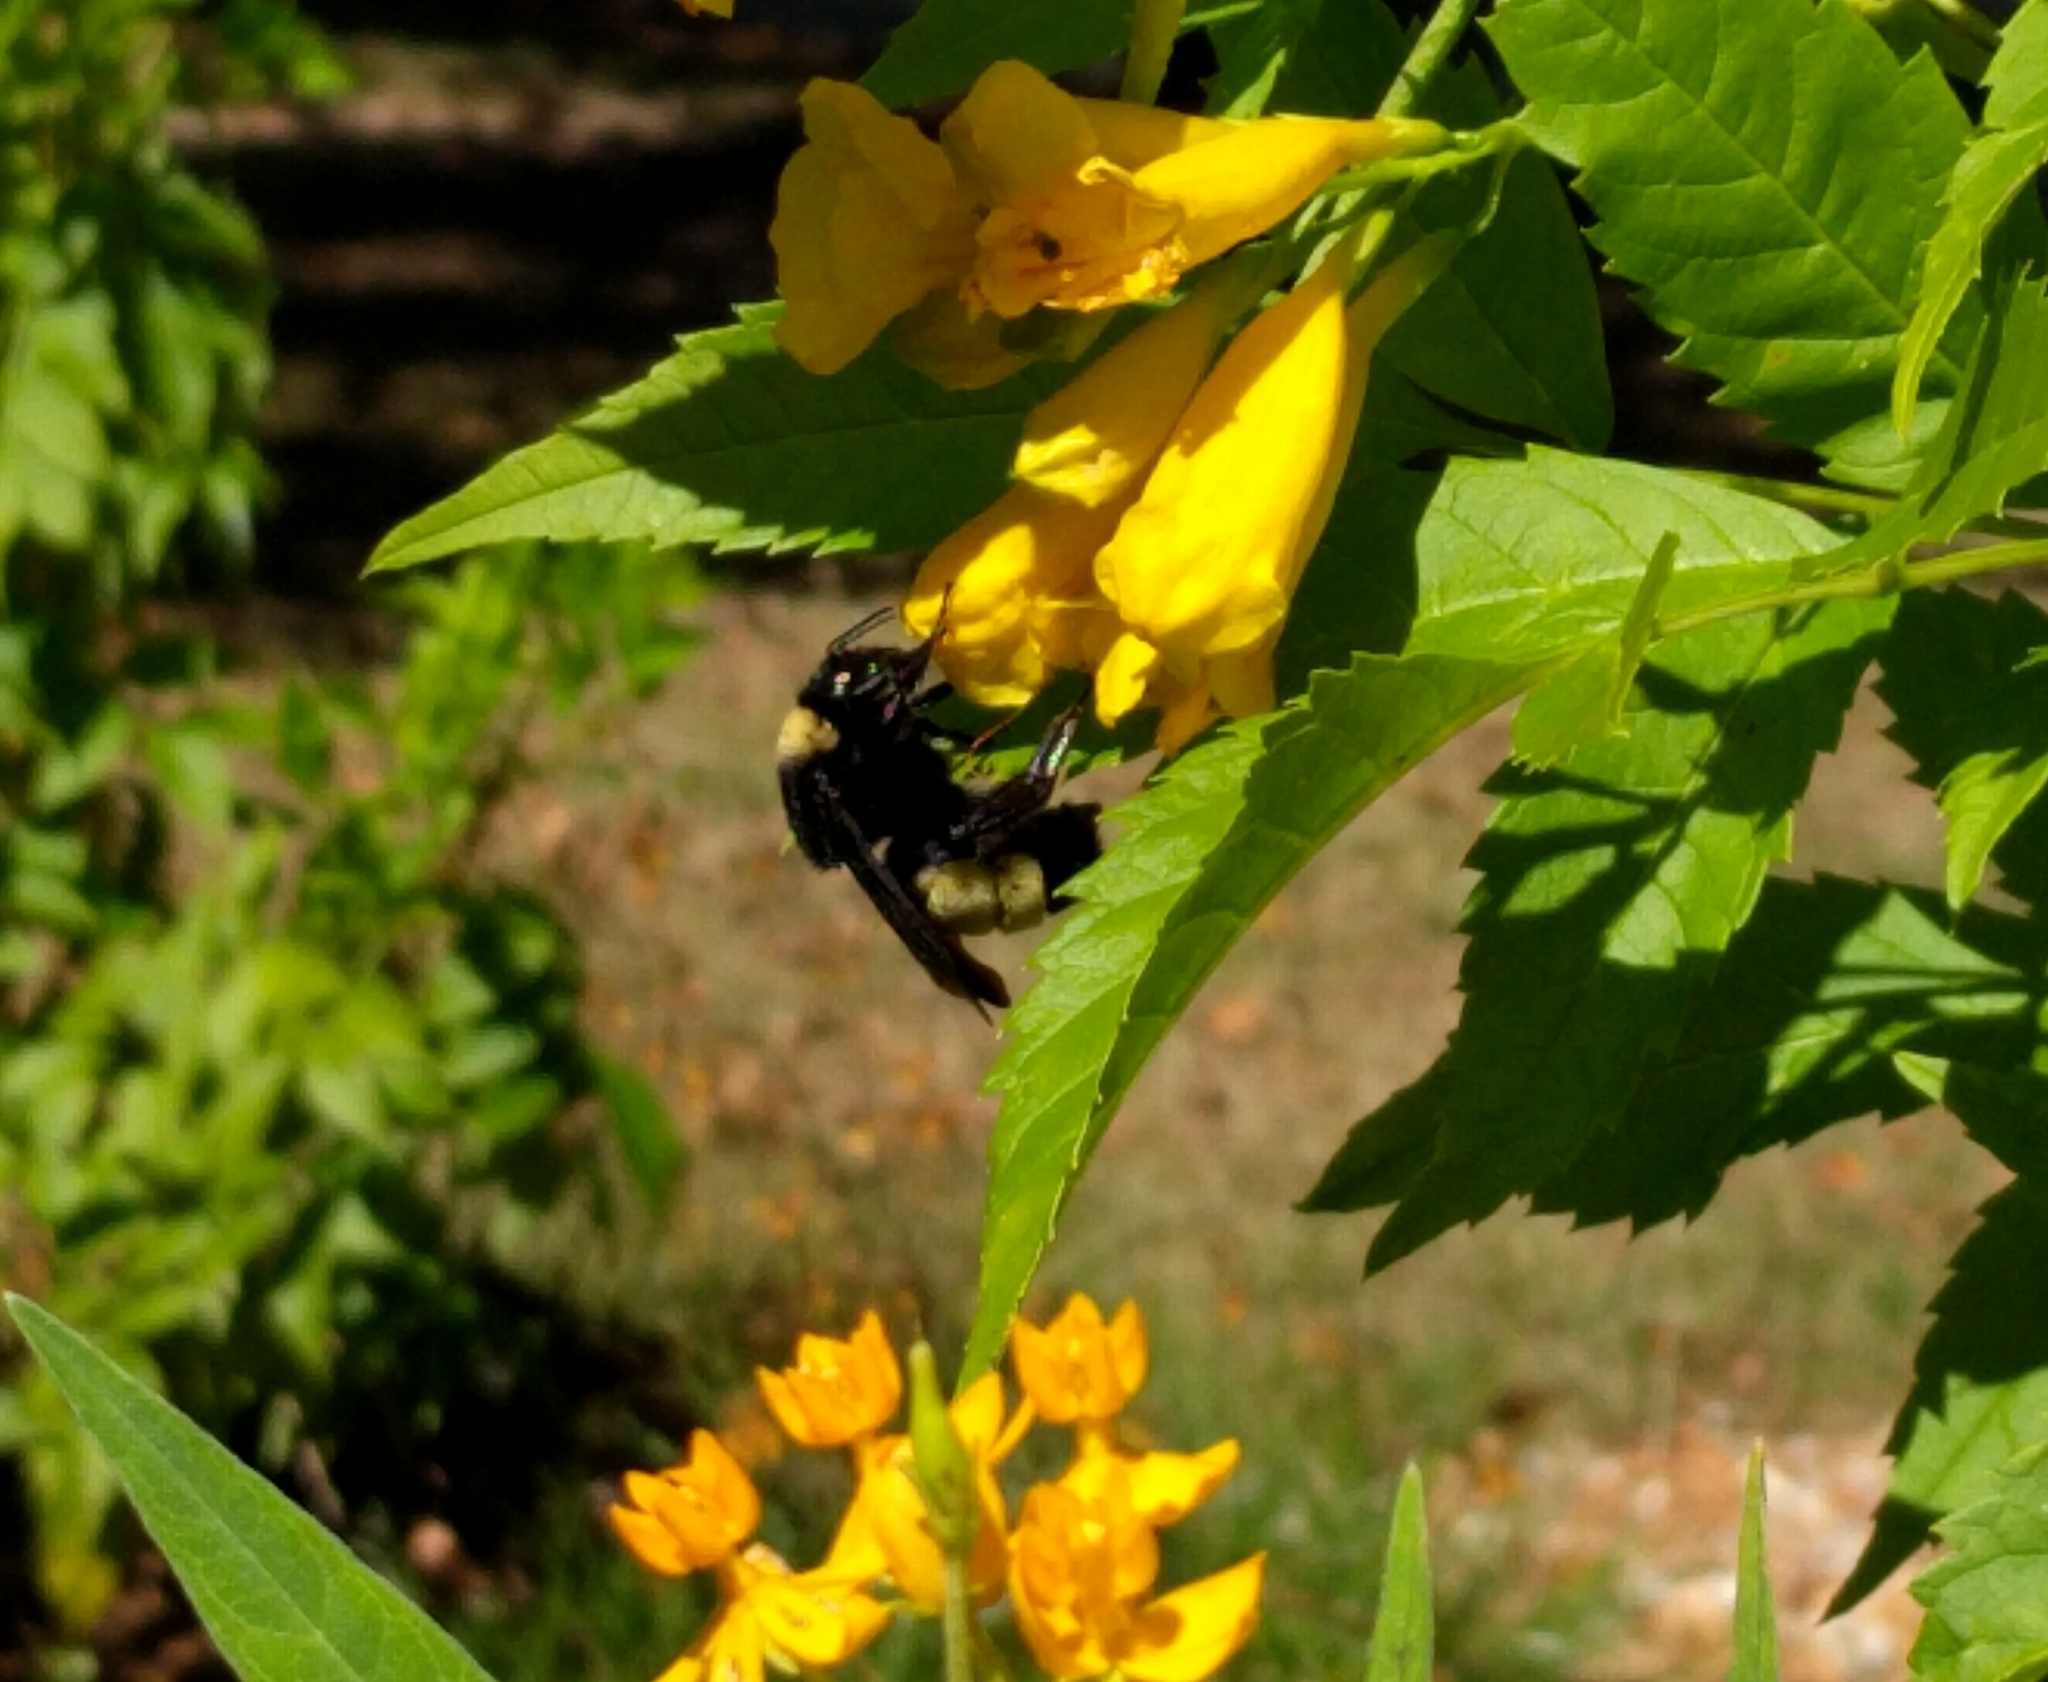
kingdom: Animalia
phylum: Arthropoda
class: Insecta
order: Hymenoptera
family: Apidae
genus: Bombus
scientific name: Bombus pensylvanicus
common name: Bumble bee
